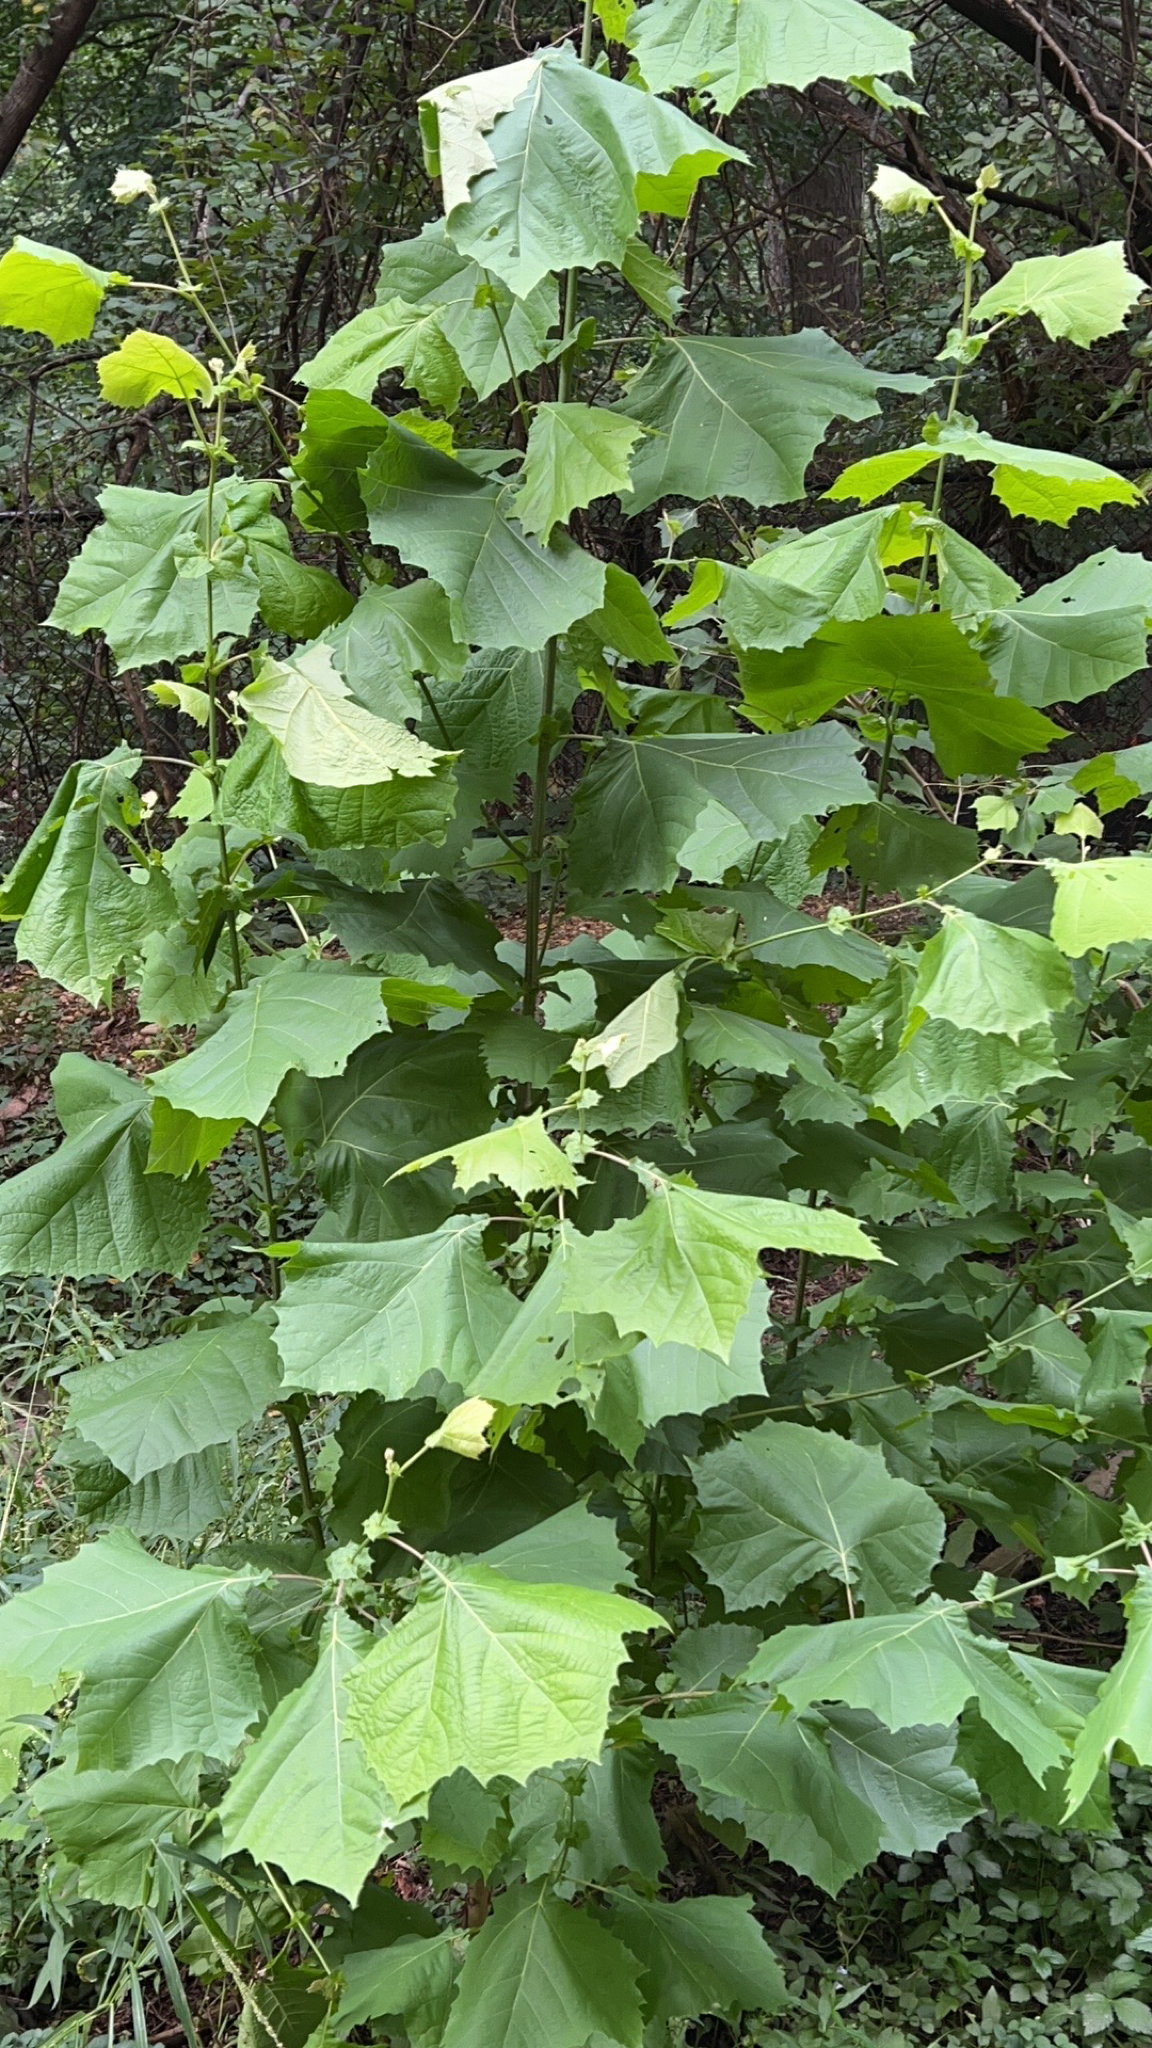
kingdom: Plantae
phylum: Tracheophyta
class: Magnoliopsida
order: Proteales
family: Platanaceae
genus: Platanus
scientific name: Platanus occidentalis
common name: American sycamore
